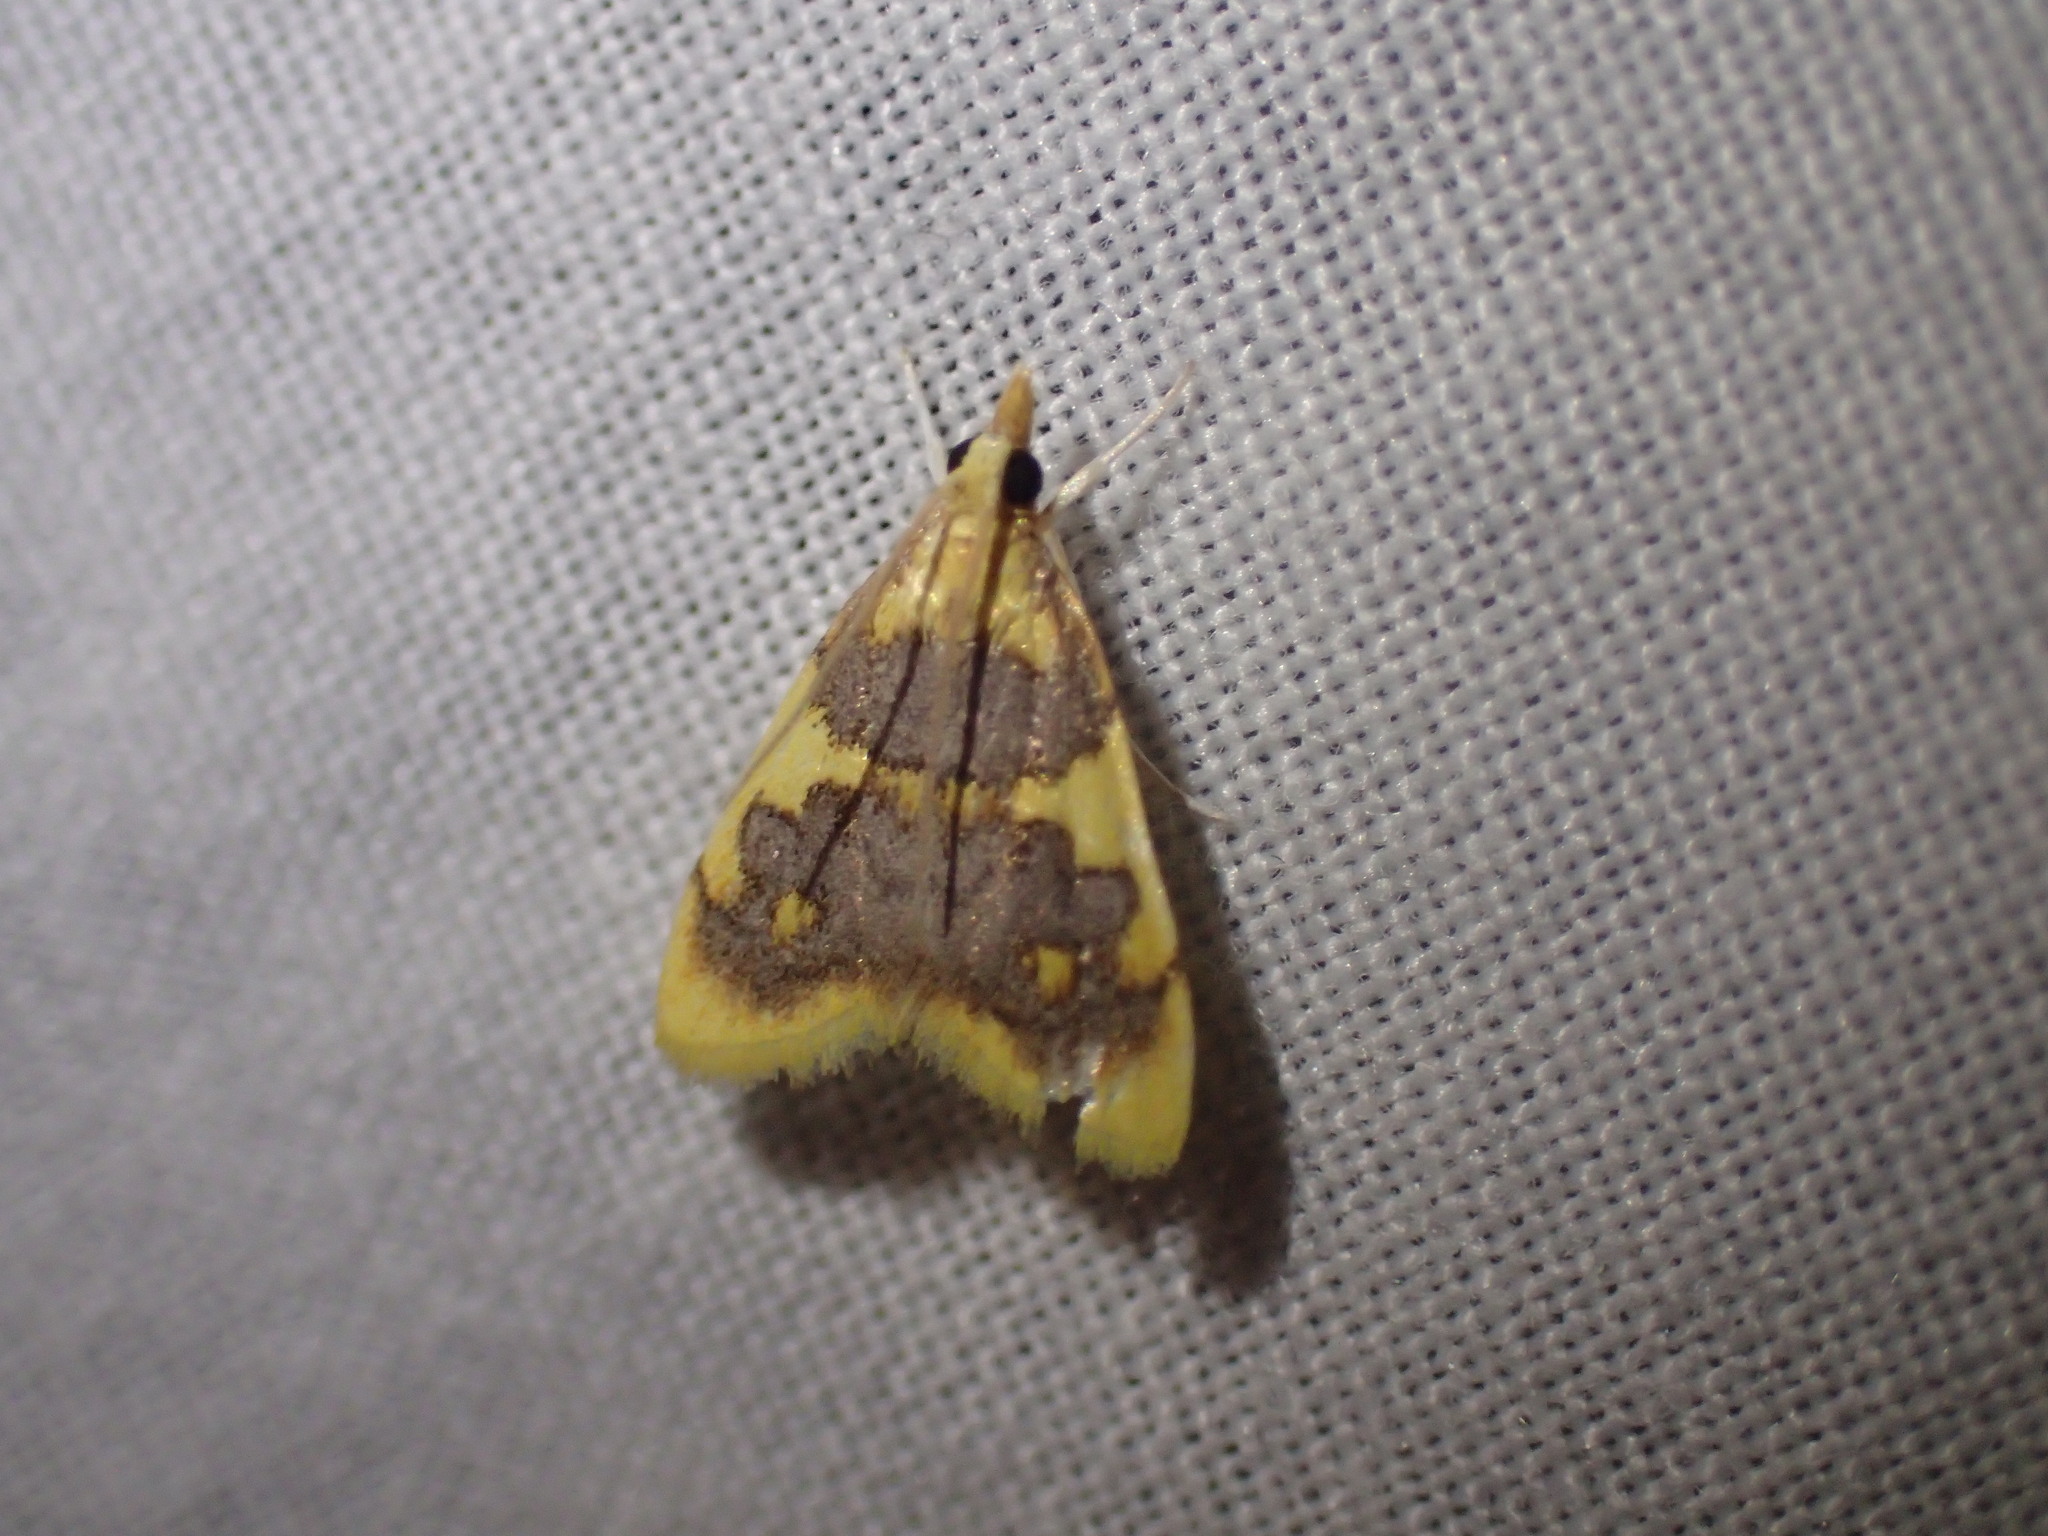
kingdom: Animalia
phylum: Arthropoda
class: Insecta
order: Lepidoptera
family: Crambidae
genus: Thliptoceras
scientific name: Thliptoceras xanthocraspia
